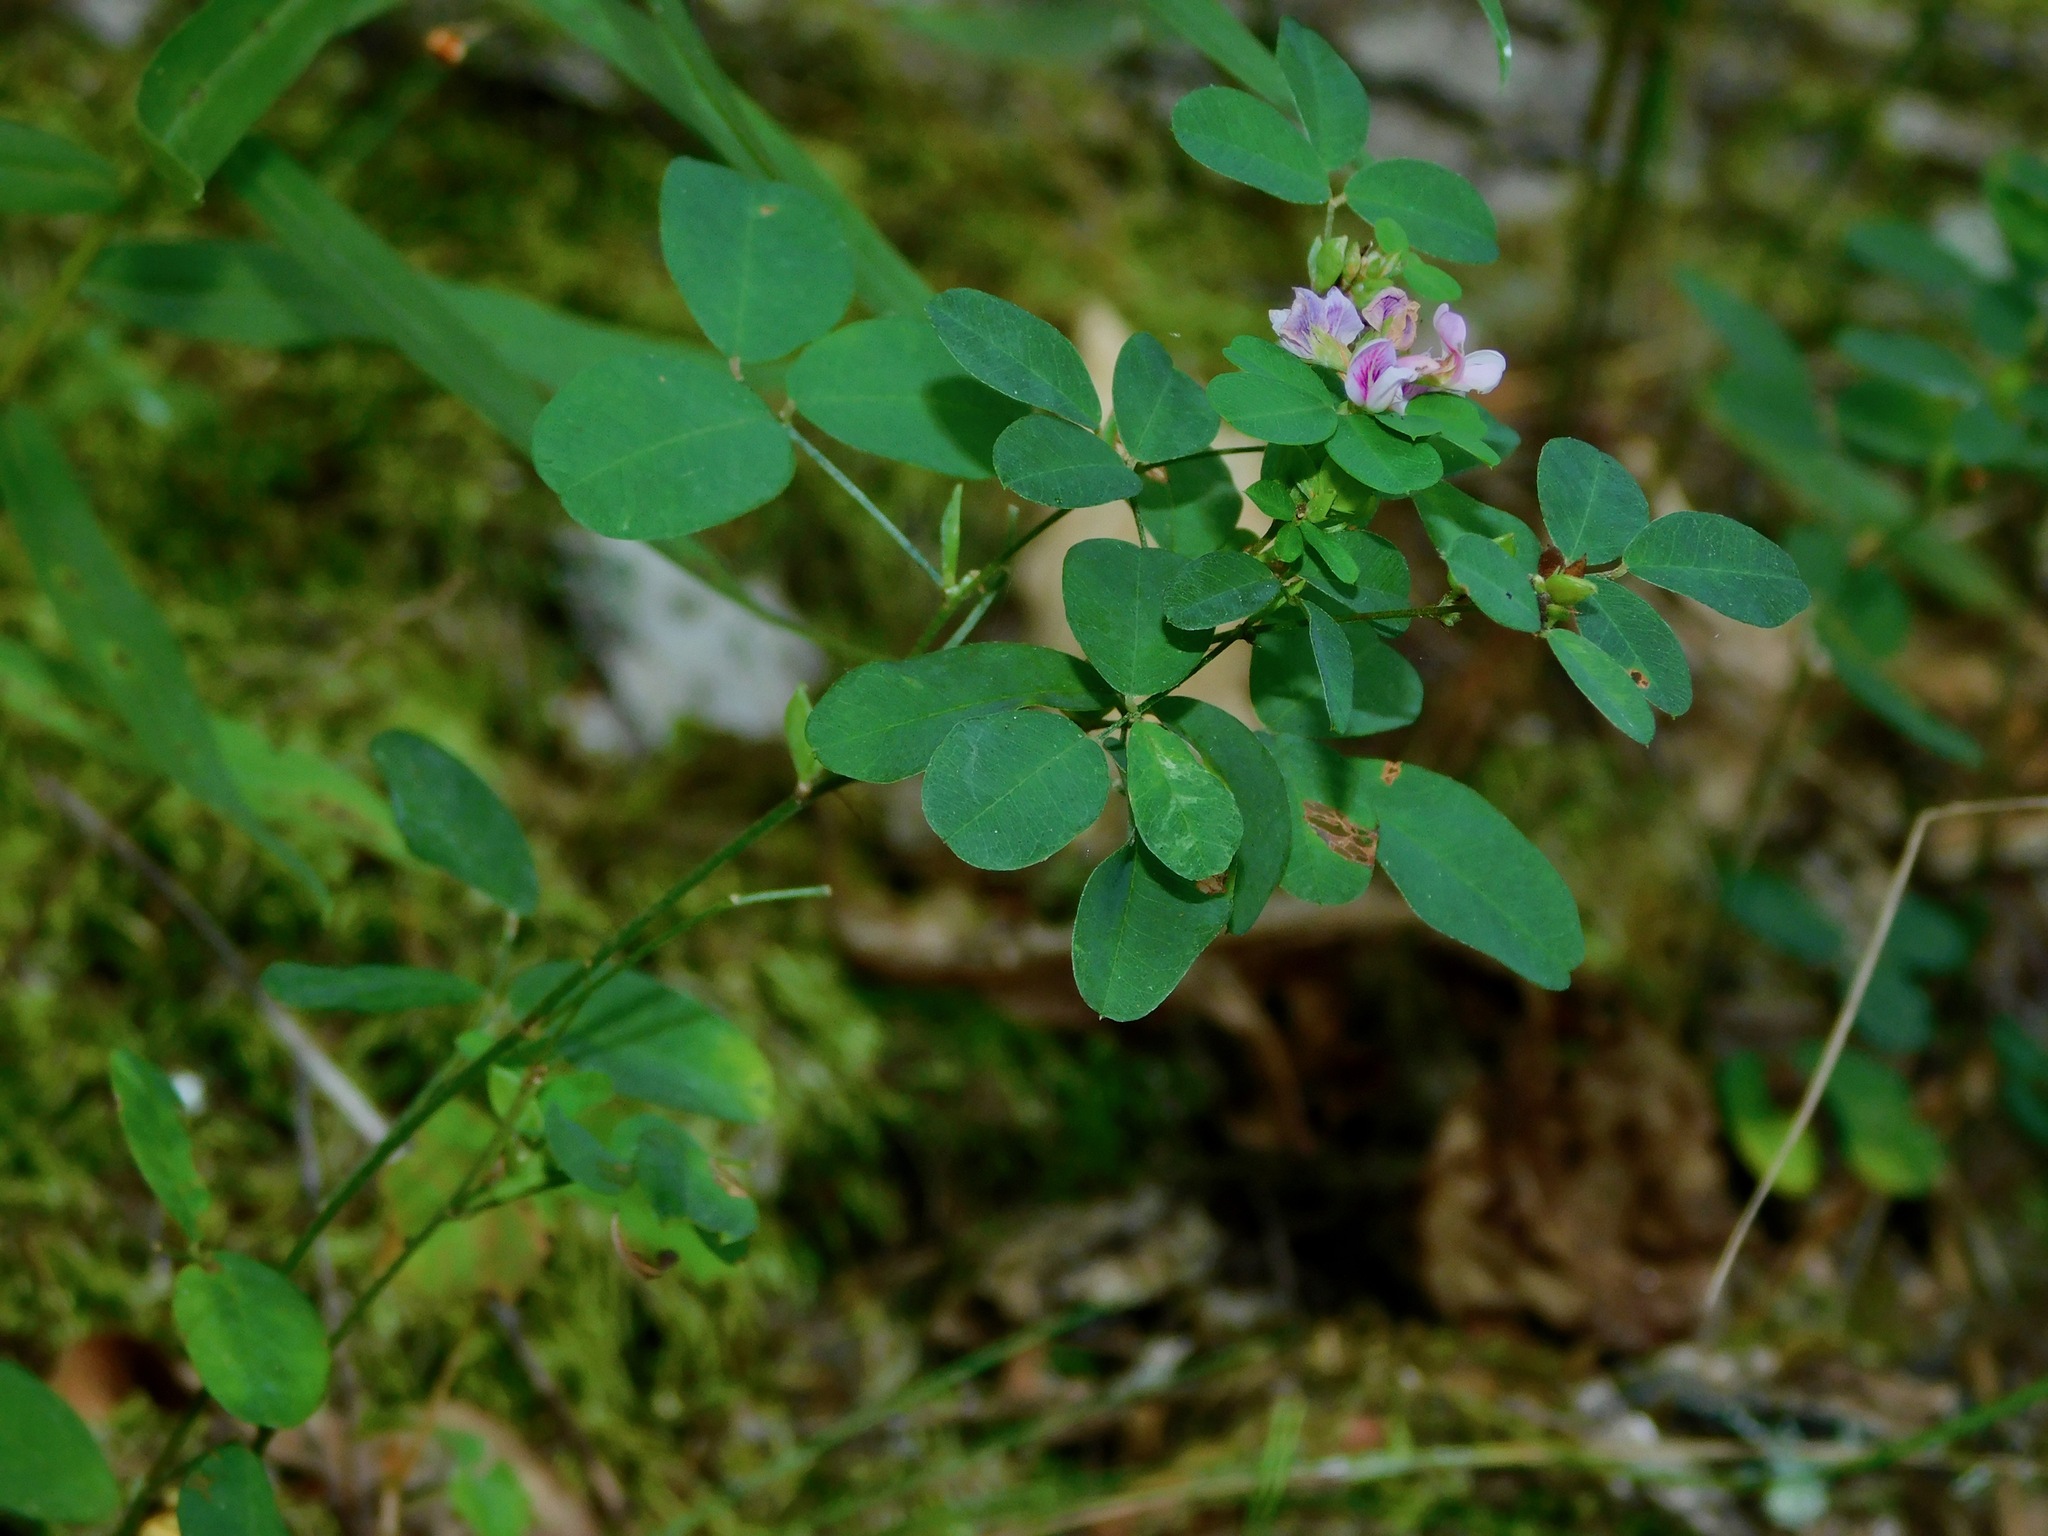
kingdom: Plantae
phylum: Tracheophyta
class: Magnoliopsida
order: Fabales
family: Fabaceae
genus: Lespedeza
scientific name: Lespedeza violacea
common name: Wand bush-clover
